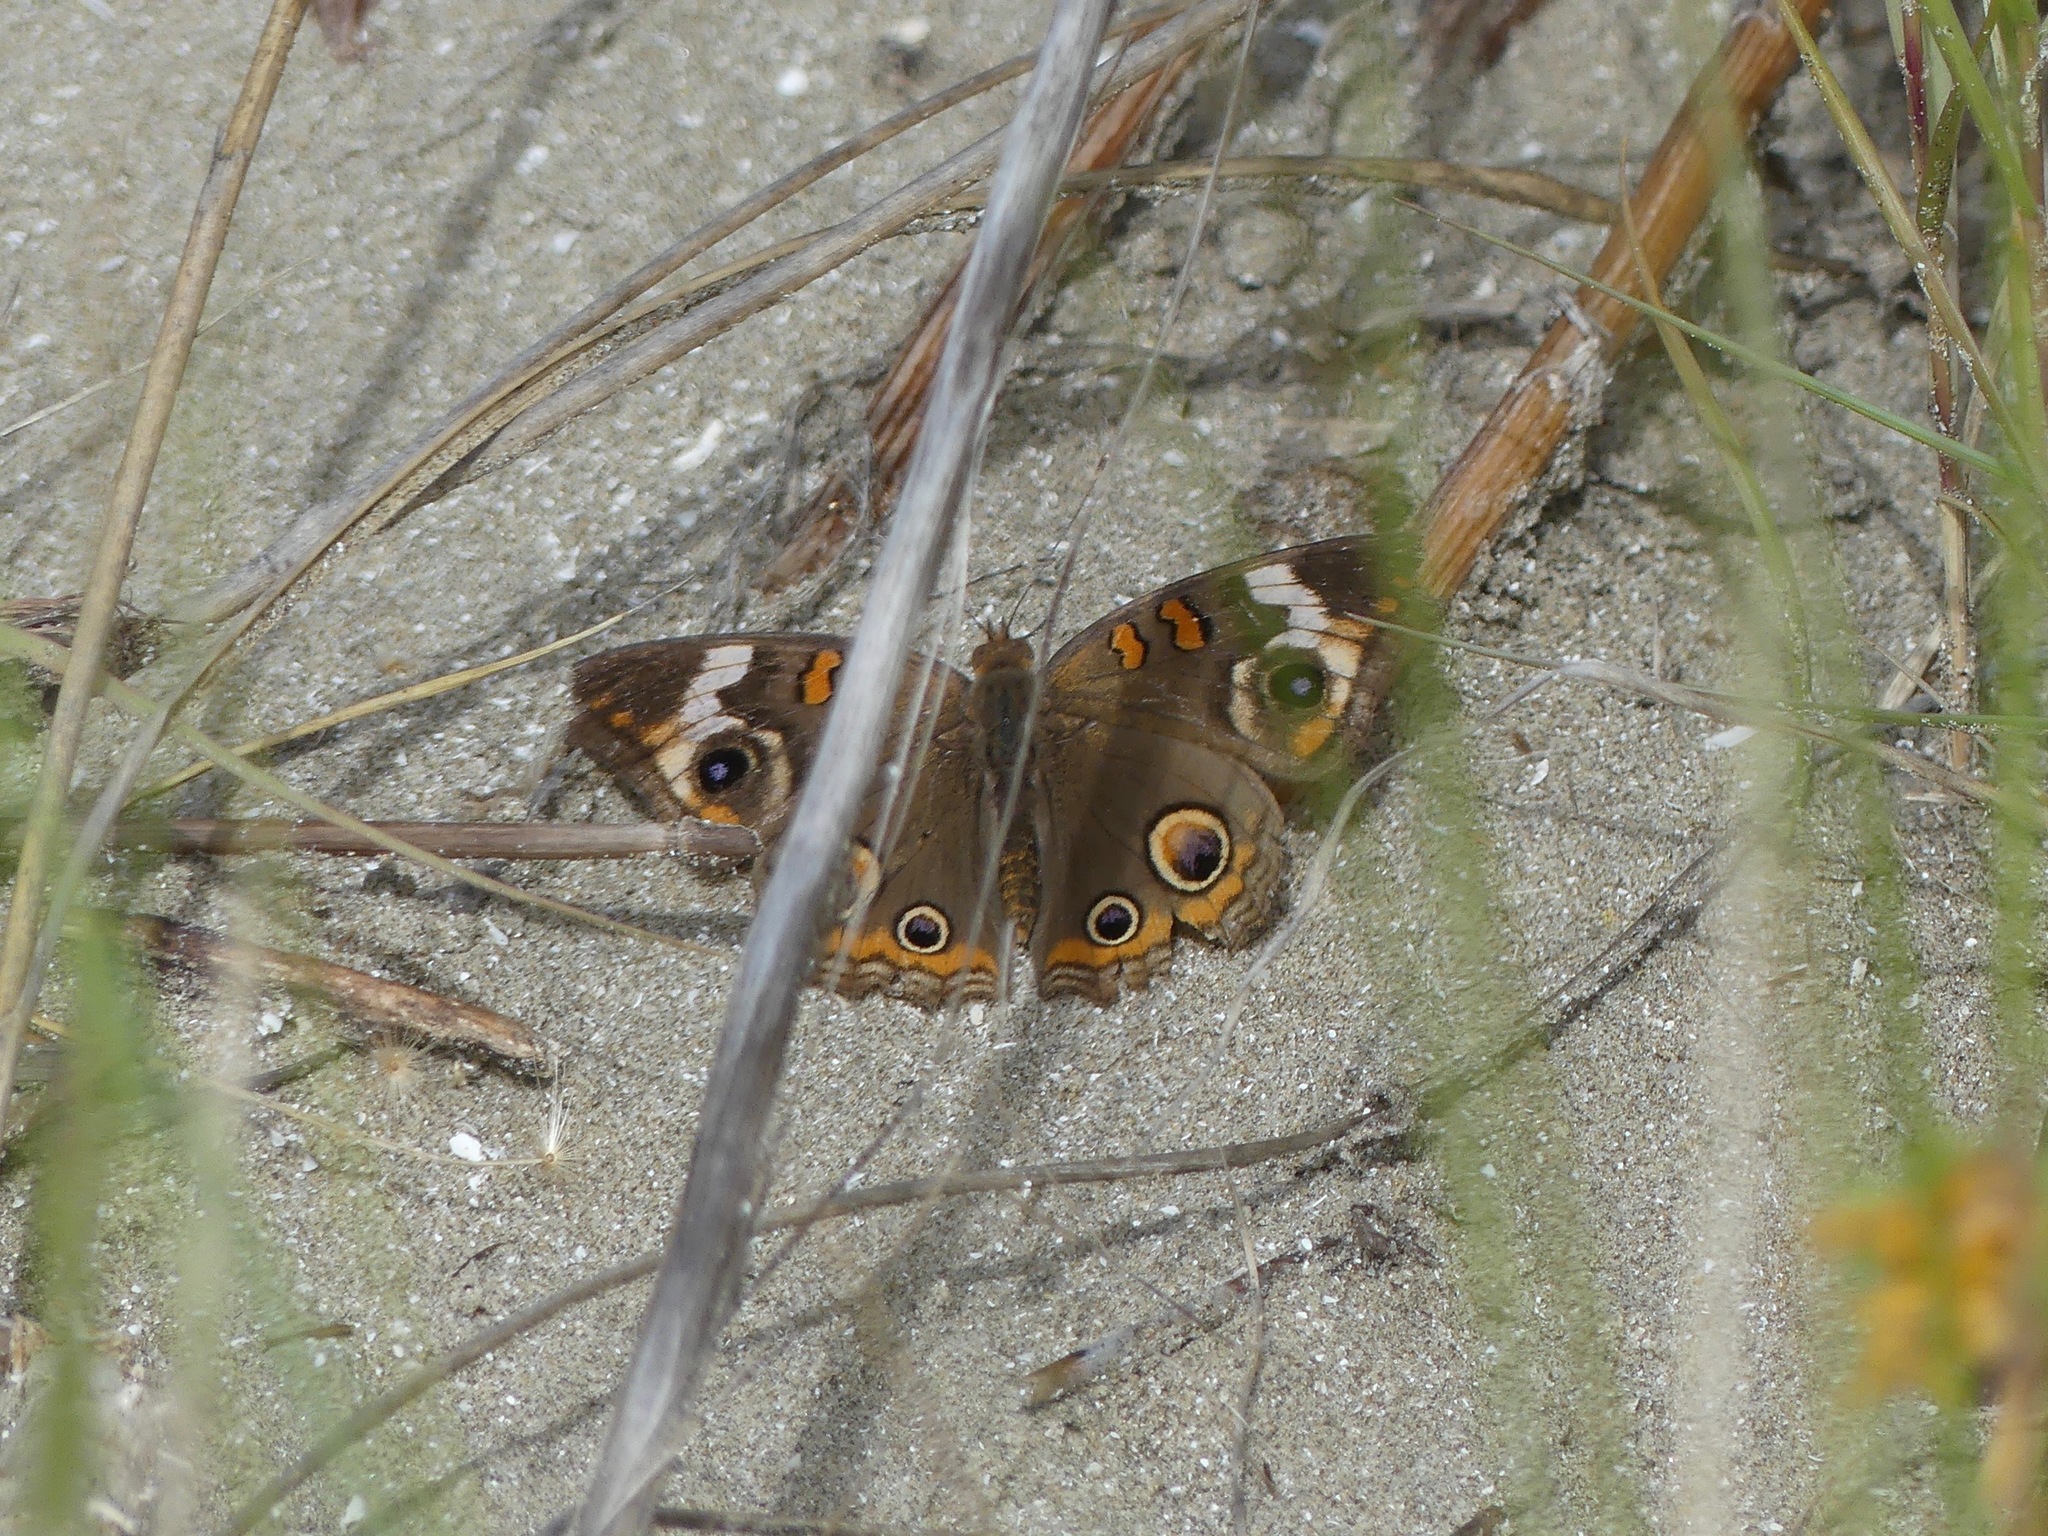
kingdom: Animalia
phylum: Arthropoda
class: Insecta
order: Lepidoptera
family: Nymphalidae
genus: Junonia
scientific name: Junonia coenia
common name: Common buckeye
